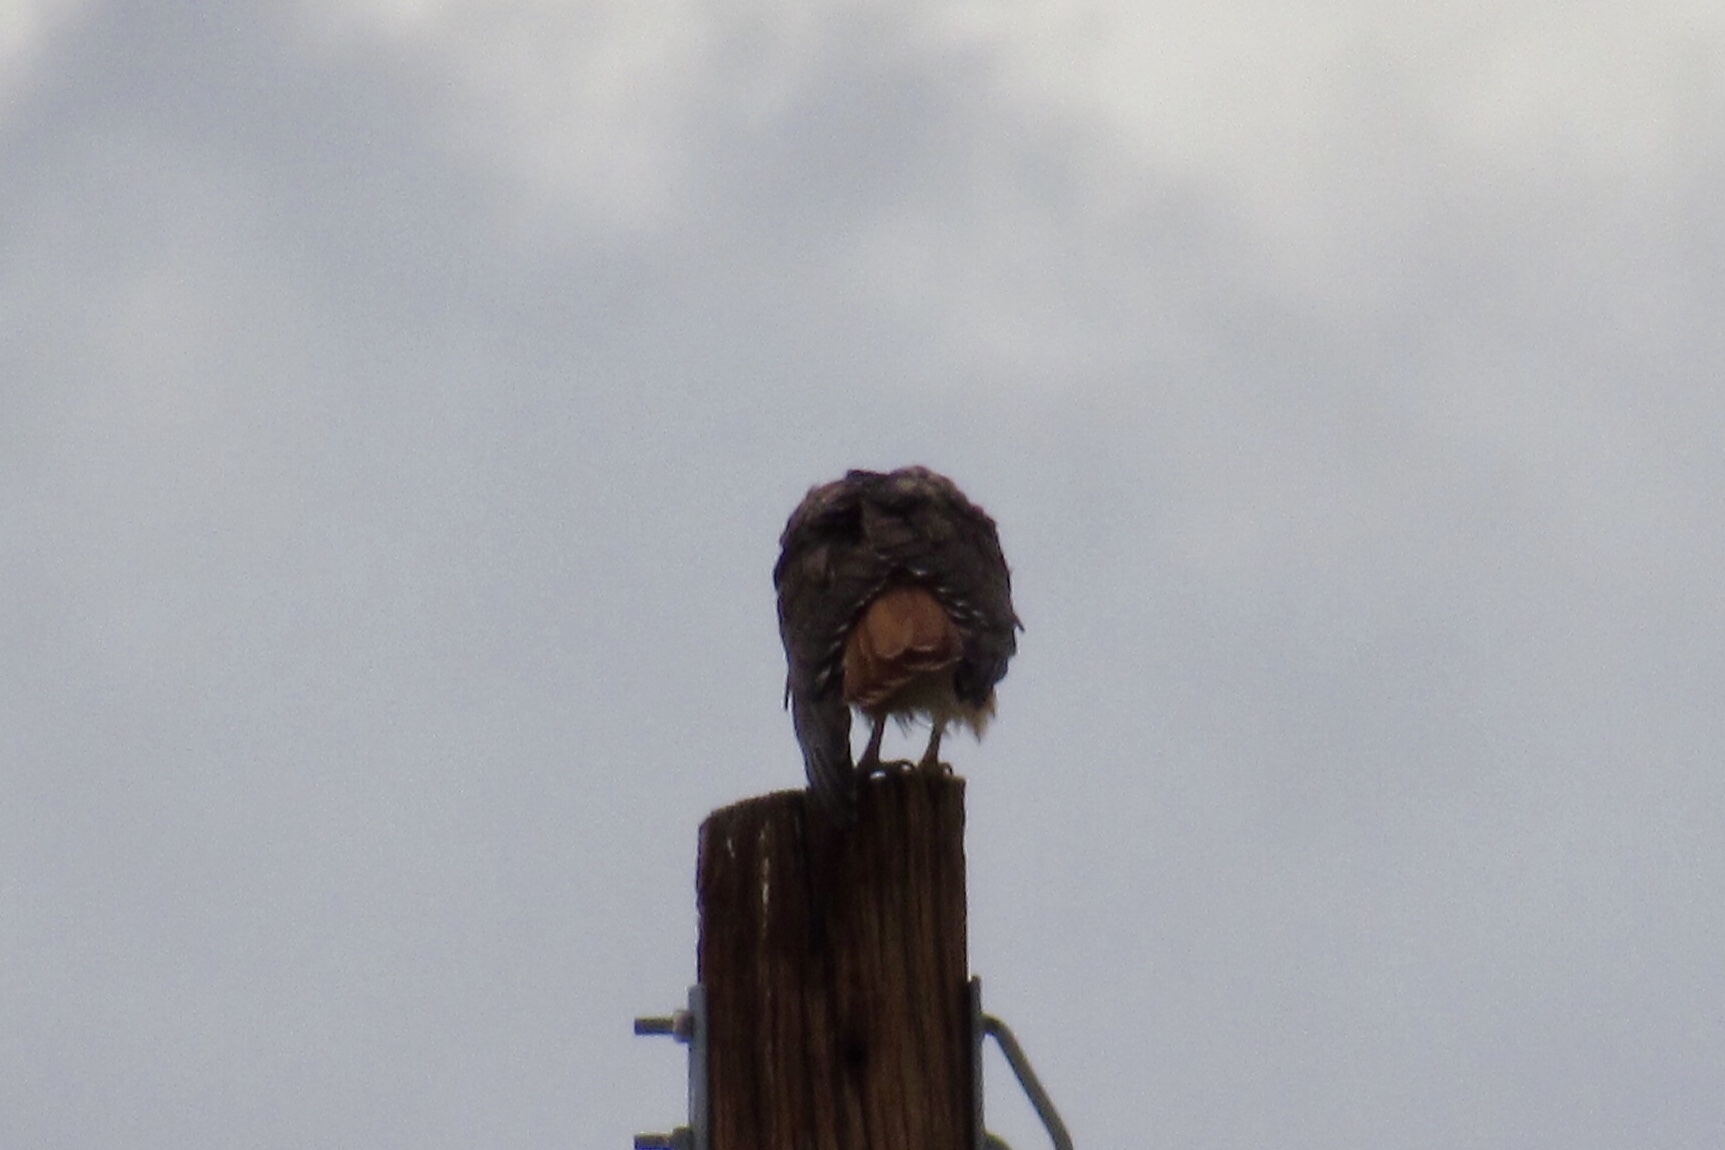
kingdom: Animalia
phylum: Chordata
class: Aves
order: Accipitriformes
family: Accipitridae
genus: Buteo
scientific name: Buteo jamaicensis
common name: Red-tailed hawk
